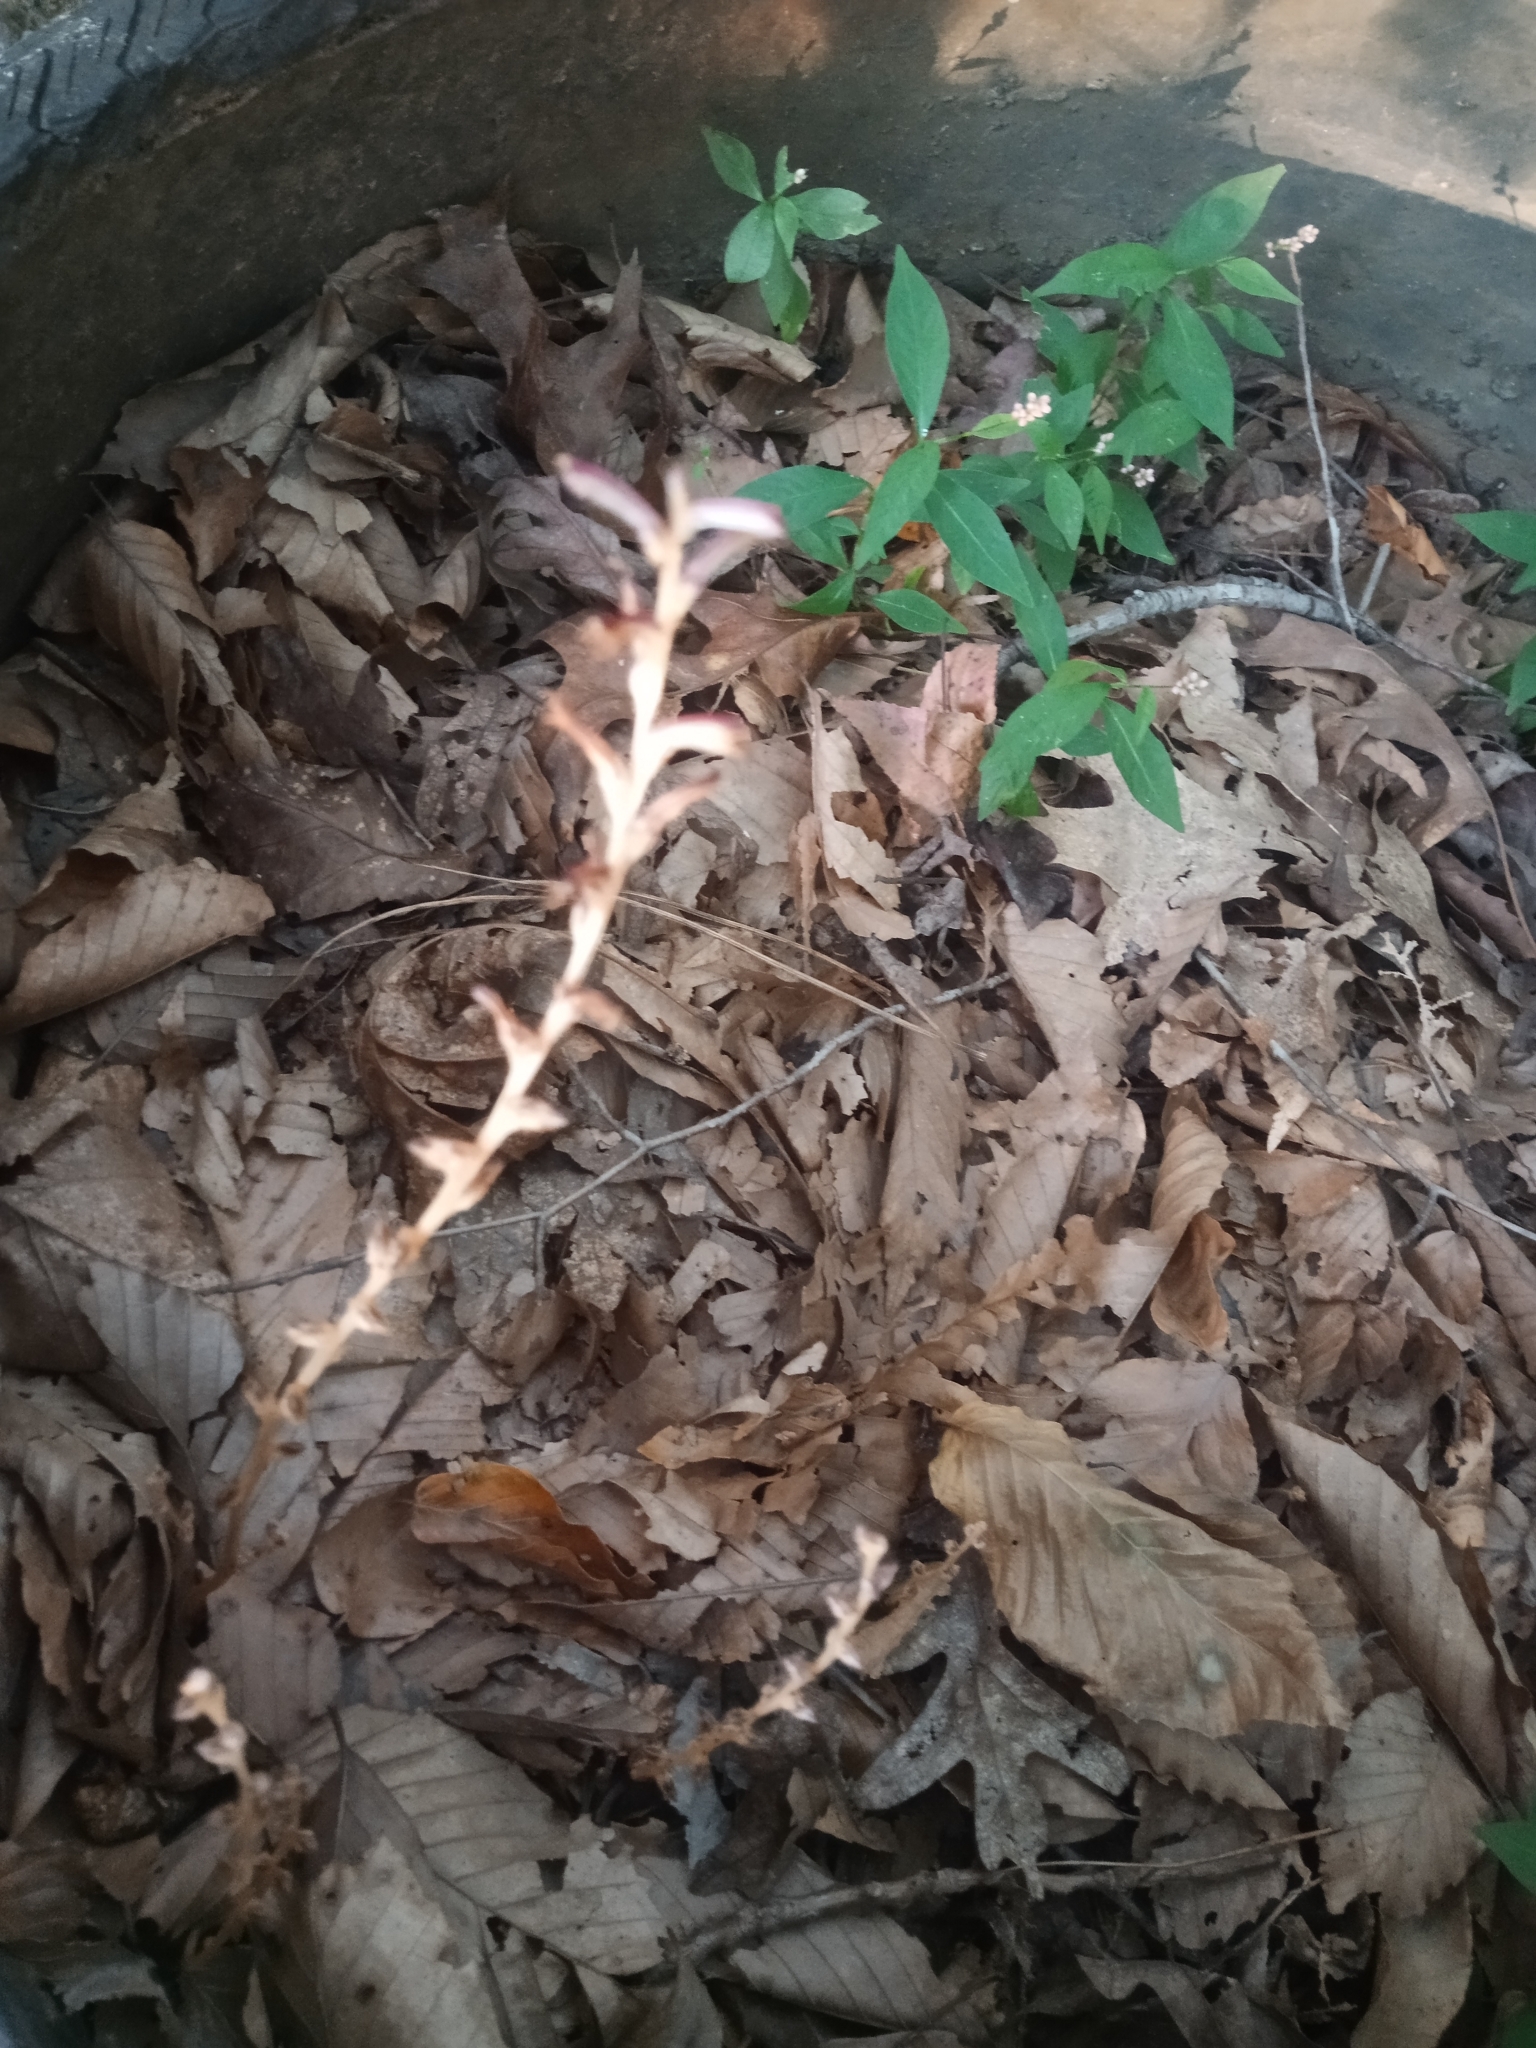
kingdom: Plantae
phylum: Tracheophyta
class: Magnoliopsida
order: Lamiales
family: Orobanchaceae
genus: Epifagus
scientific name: Epifagus virginiana
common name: Beechdrops
